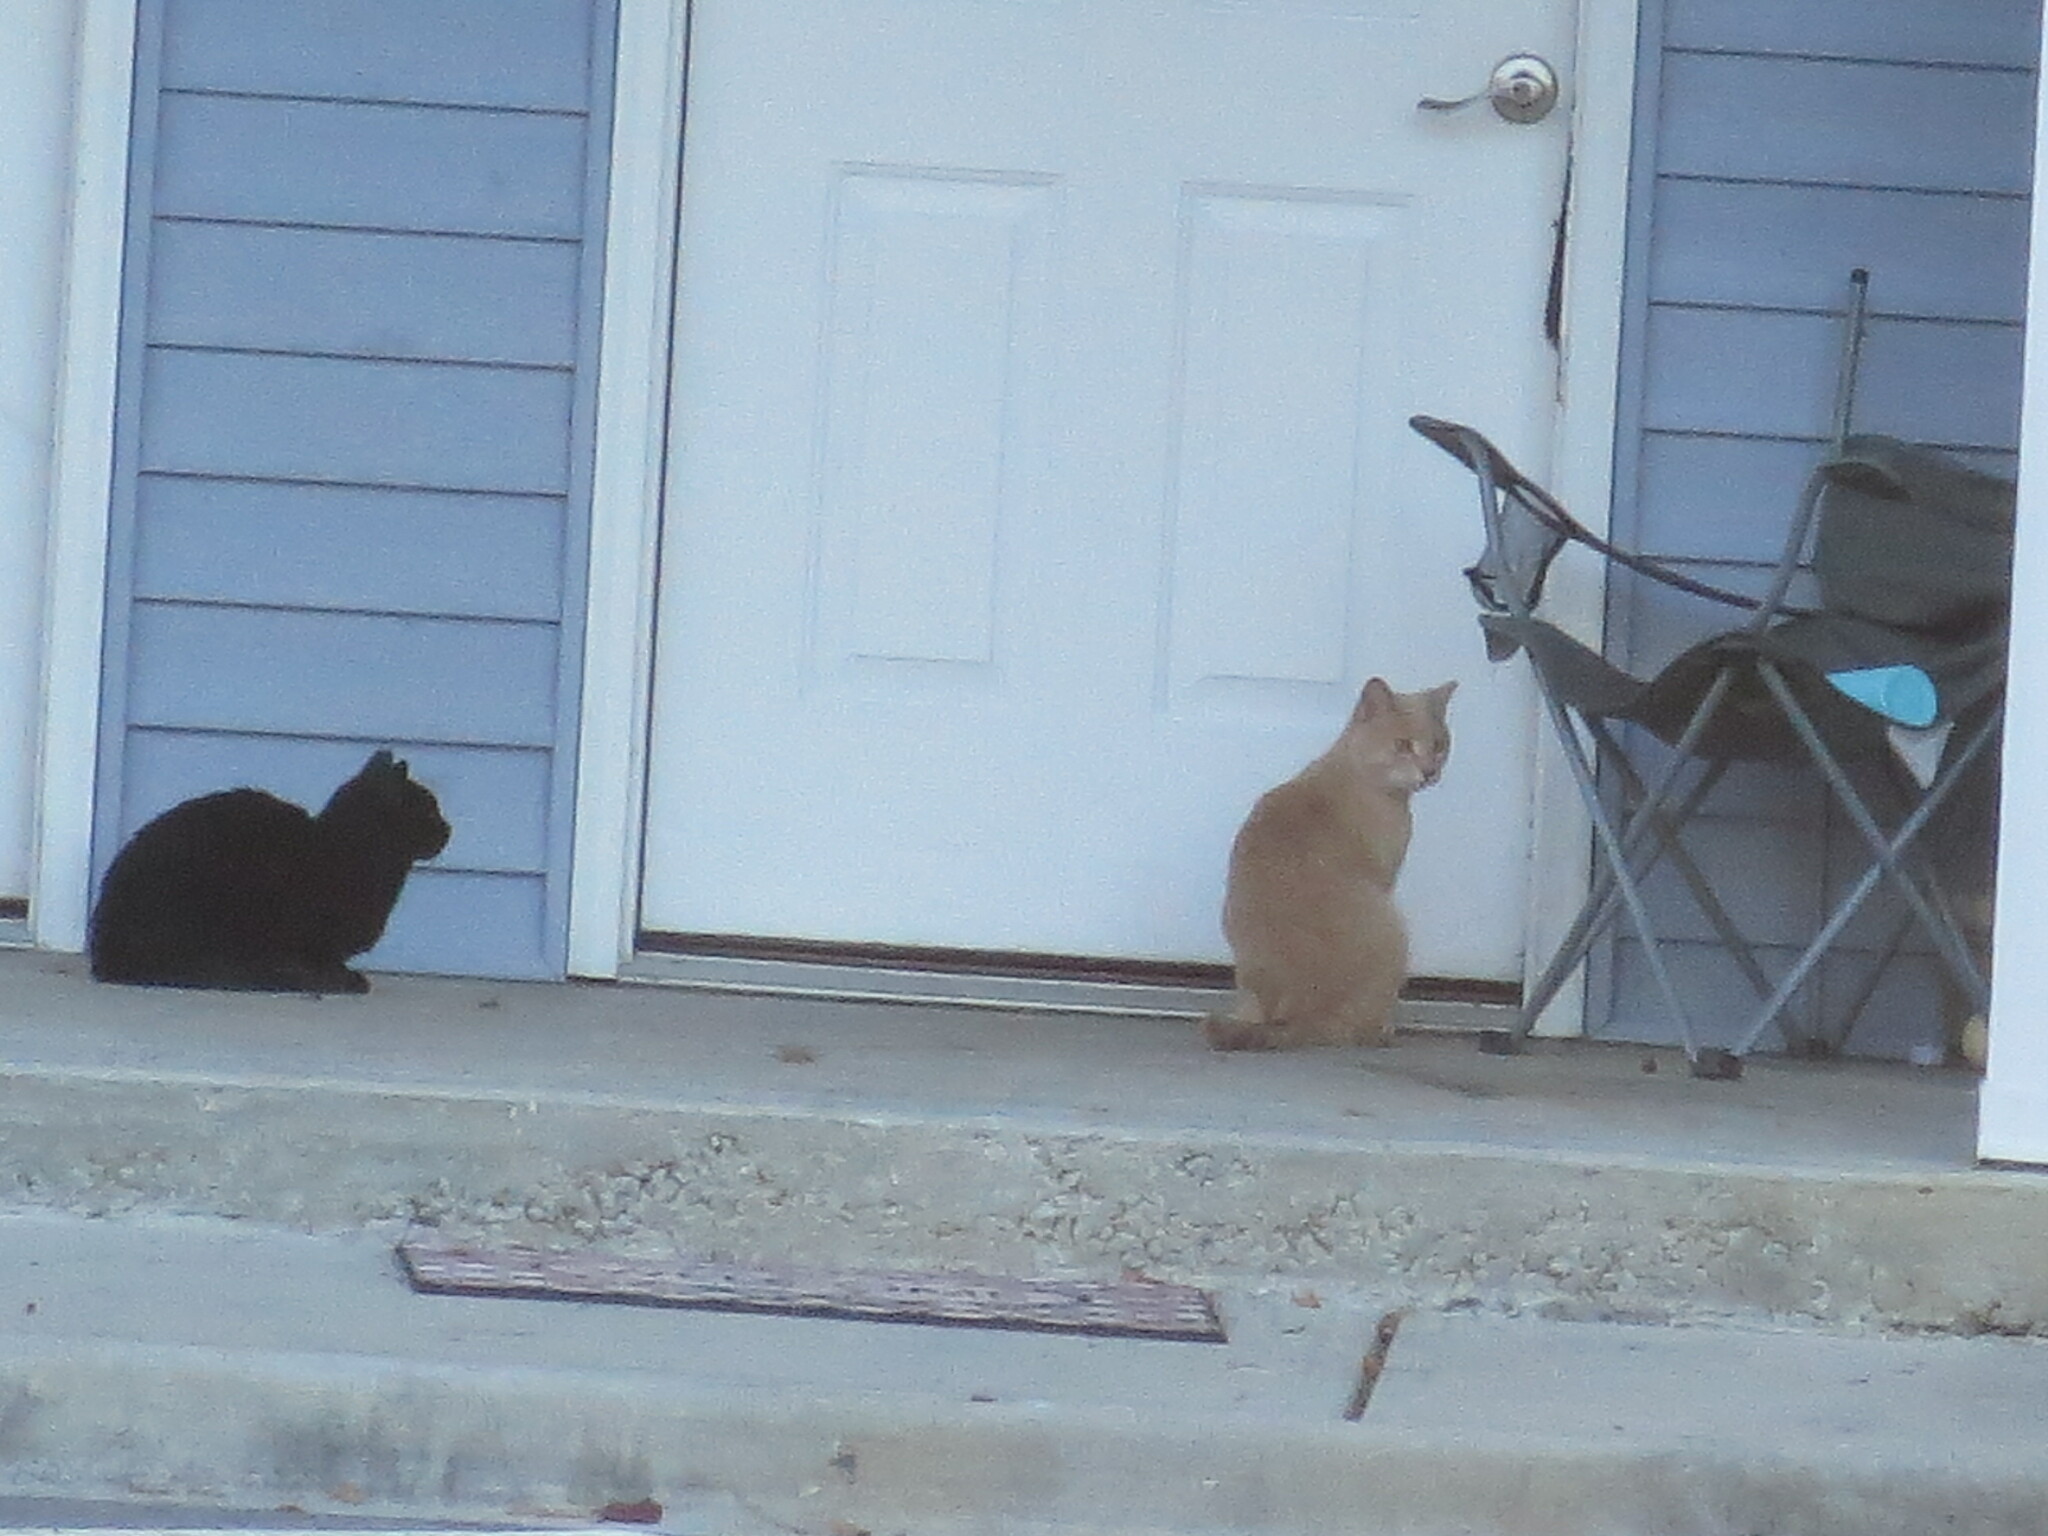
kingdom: Animalia
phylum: Chordata
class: Mammalia
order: Carnivora
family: Felidae
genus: Felis
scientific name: Felis catus
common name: Domestic cat
